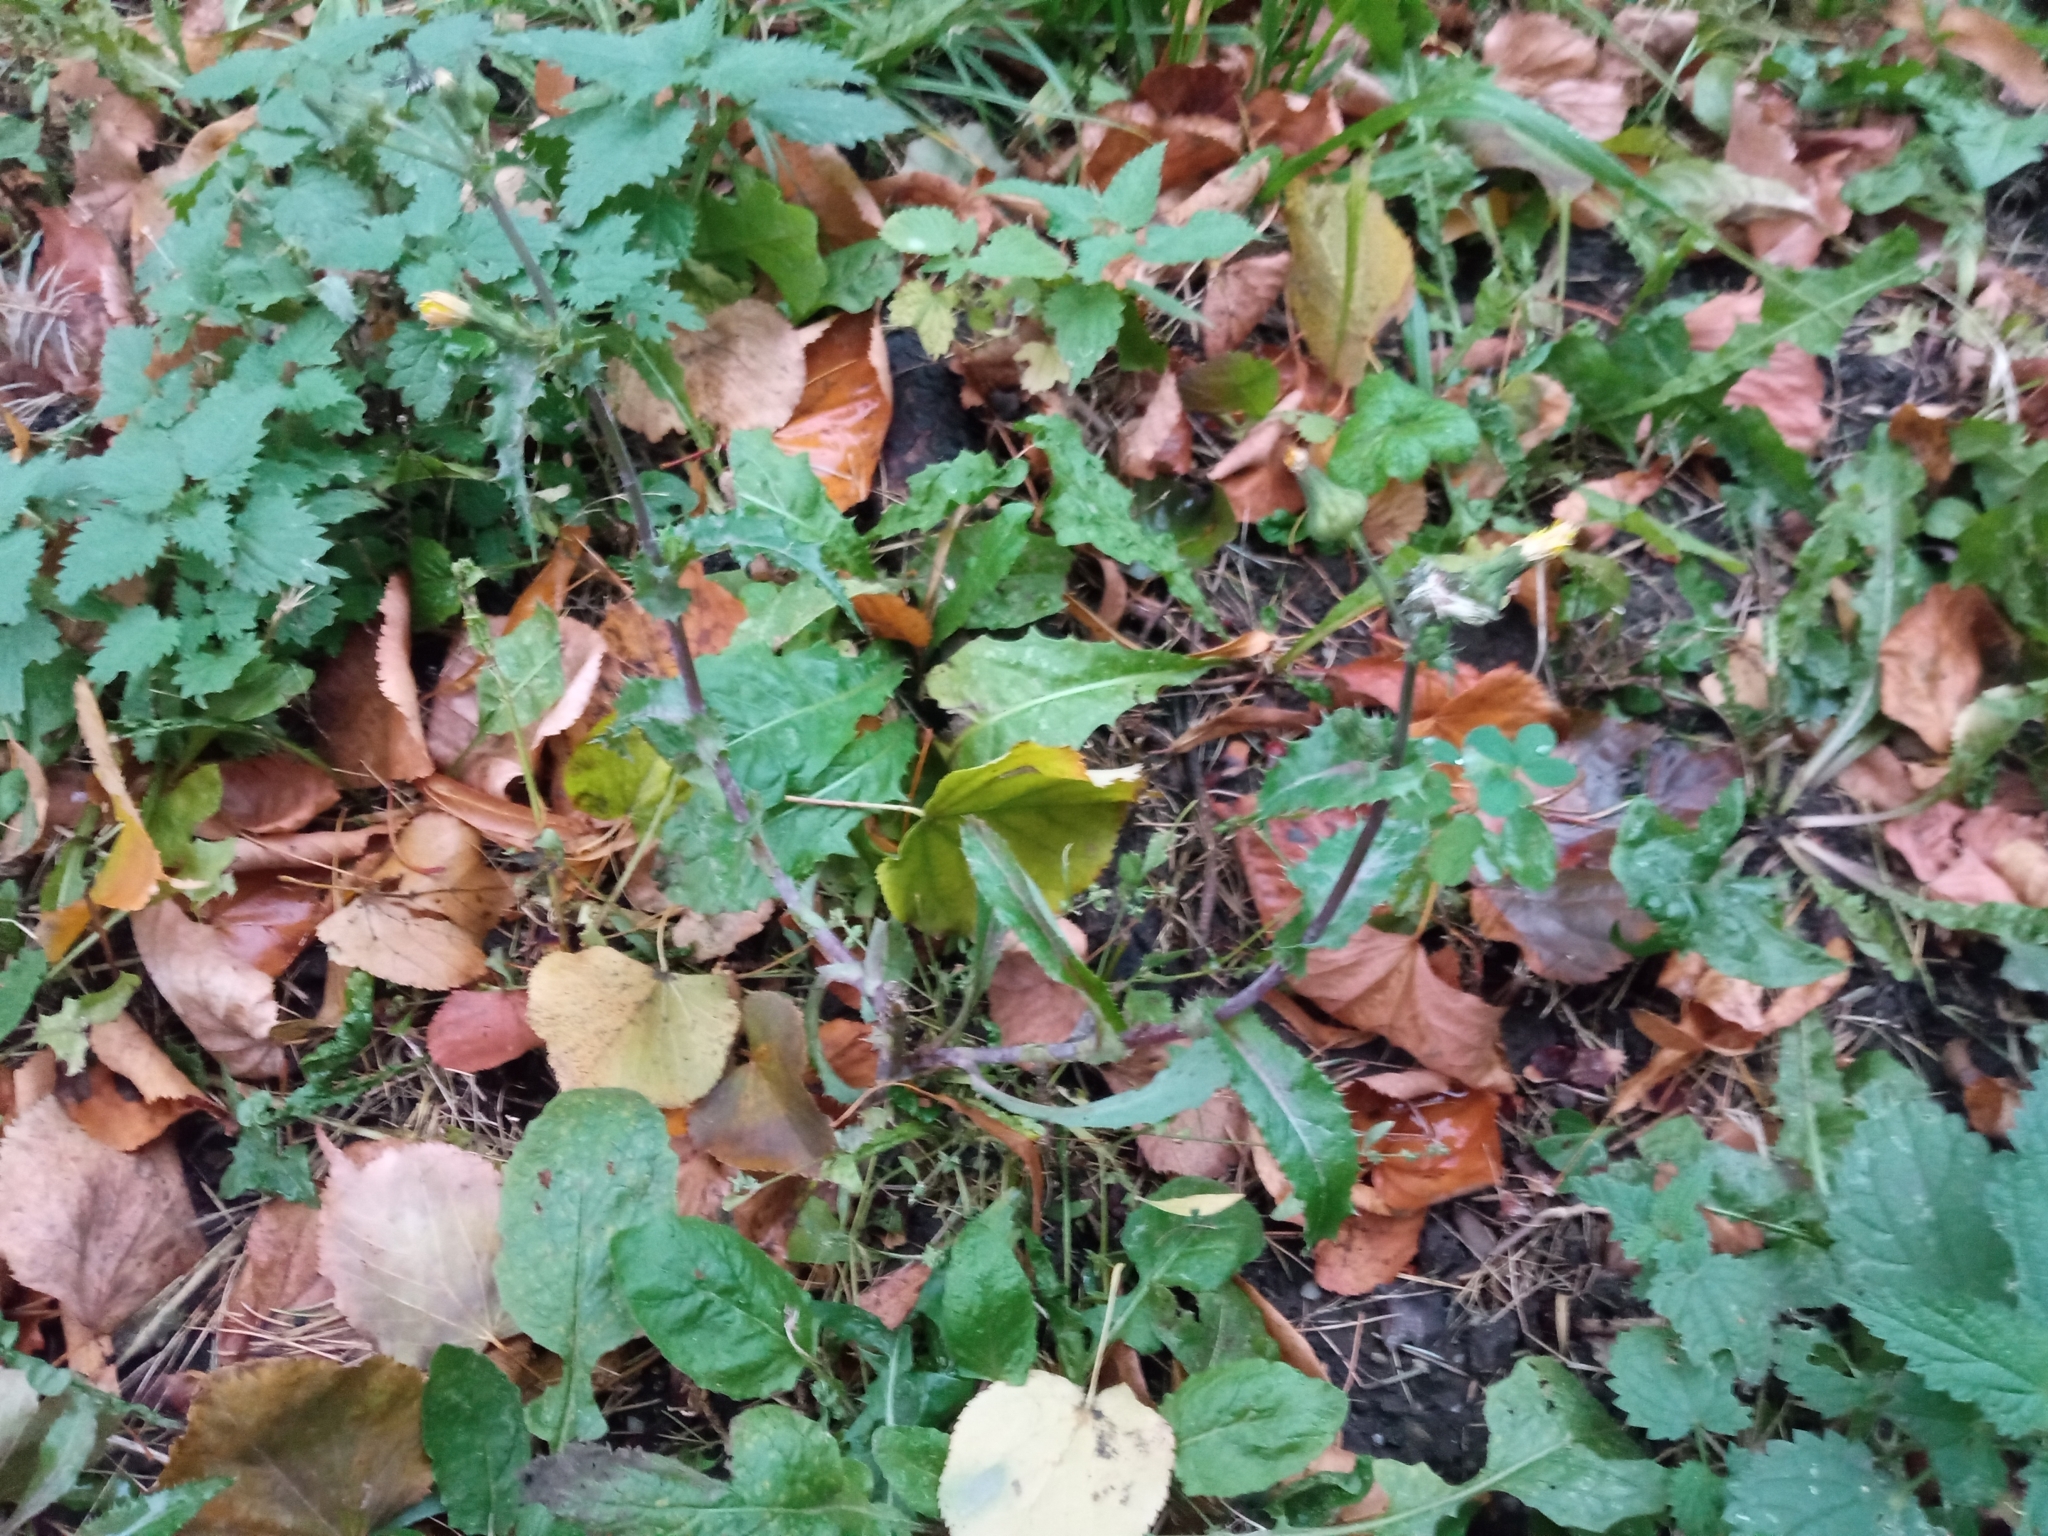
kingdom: Plantae
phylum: Tracheophyta
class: Magnoliopsida
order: Asterales
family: Asteraceae
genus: Sonchus
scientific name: Sonchus asper
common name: Prickly sow-thistle
